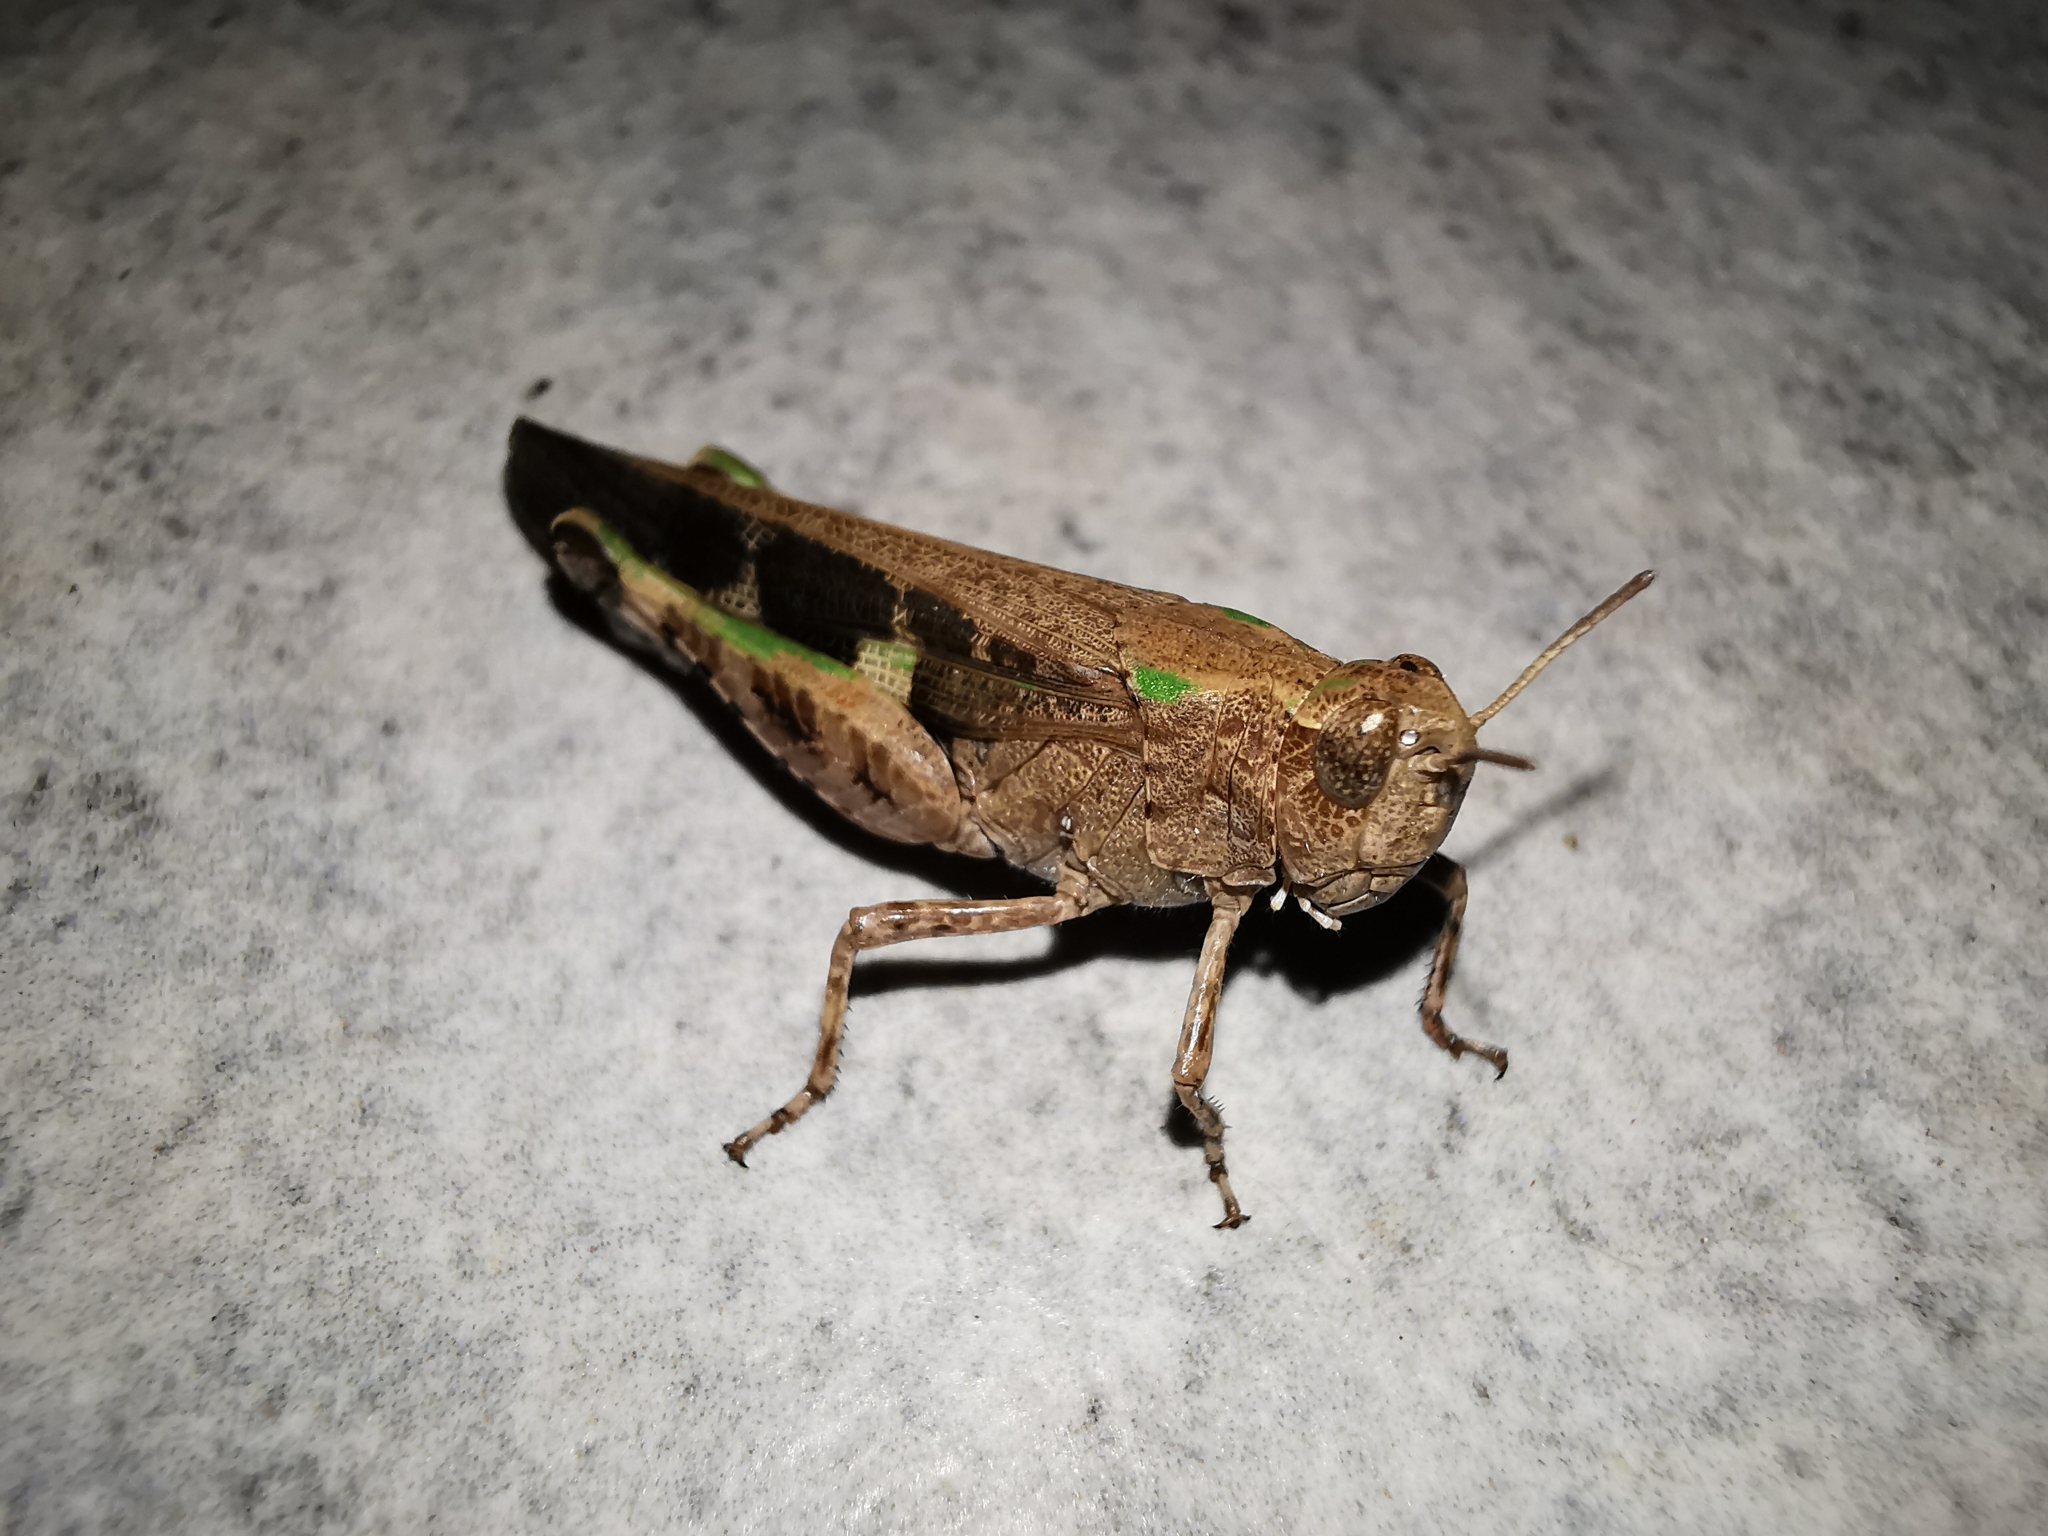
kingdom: Animalia
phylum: Arthropoda
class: Insecta
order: Orthoptera
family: Acrididae
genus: Aiolopus
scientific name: Aiolopus strepens
